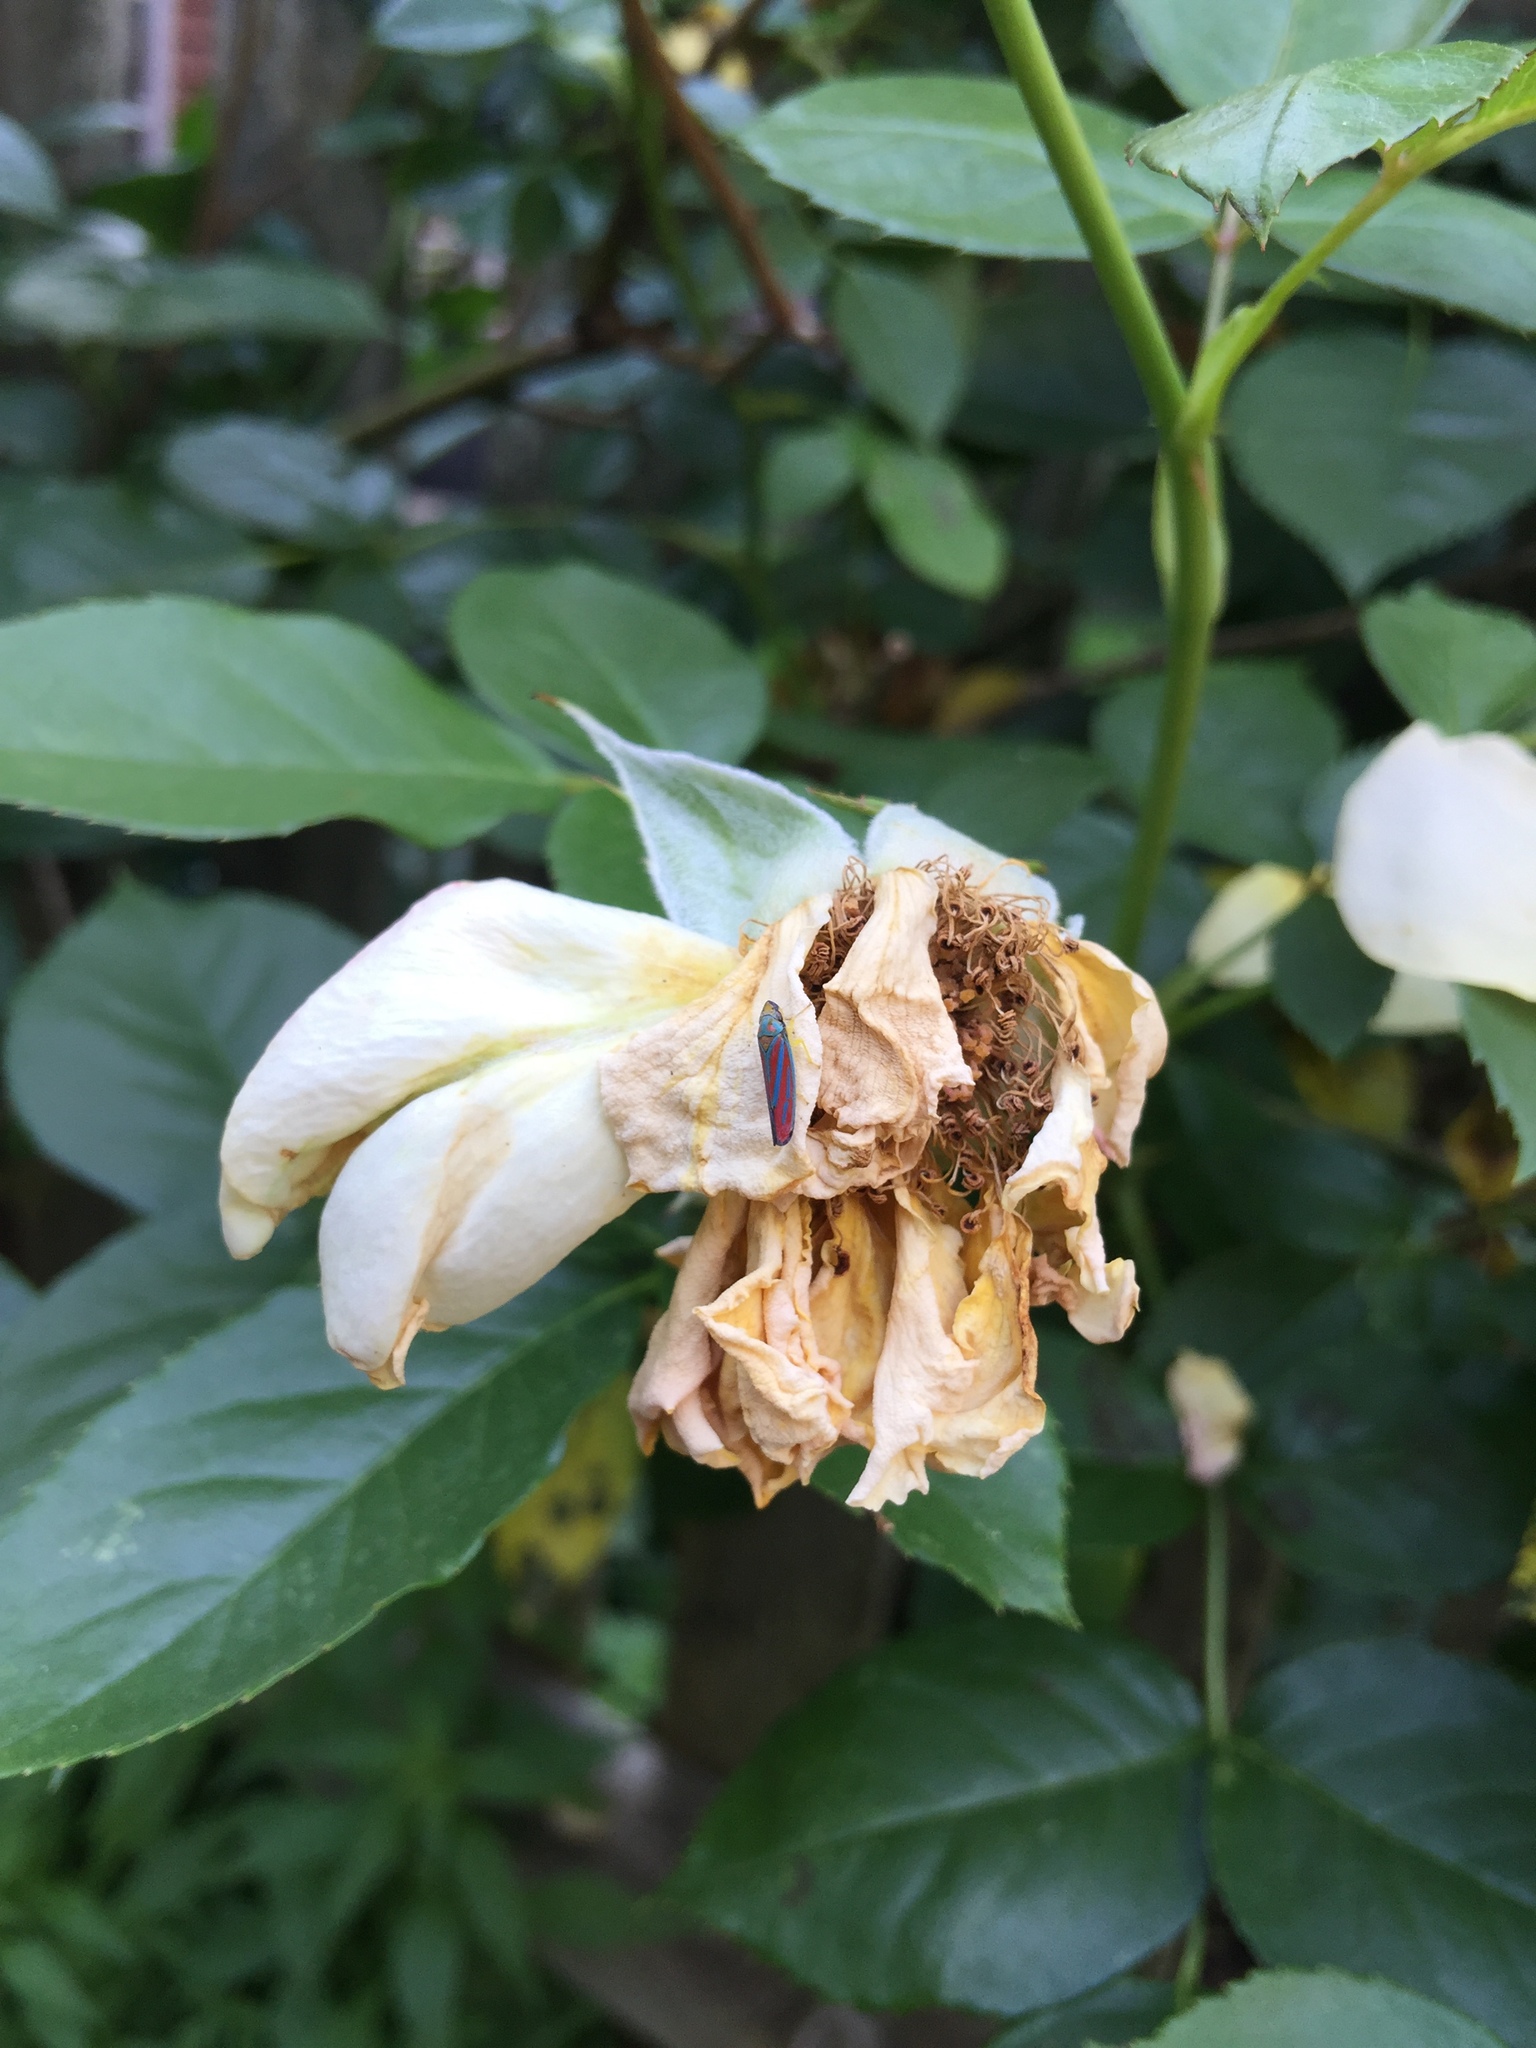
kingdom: Animalia
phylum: Arthropoda
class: Insecta
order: Hemiptera
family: Cicadellidae
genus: Graphocephala
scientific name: Graphocephala coccinea
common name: Candy-striped leafhopper
